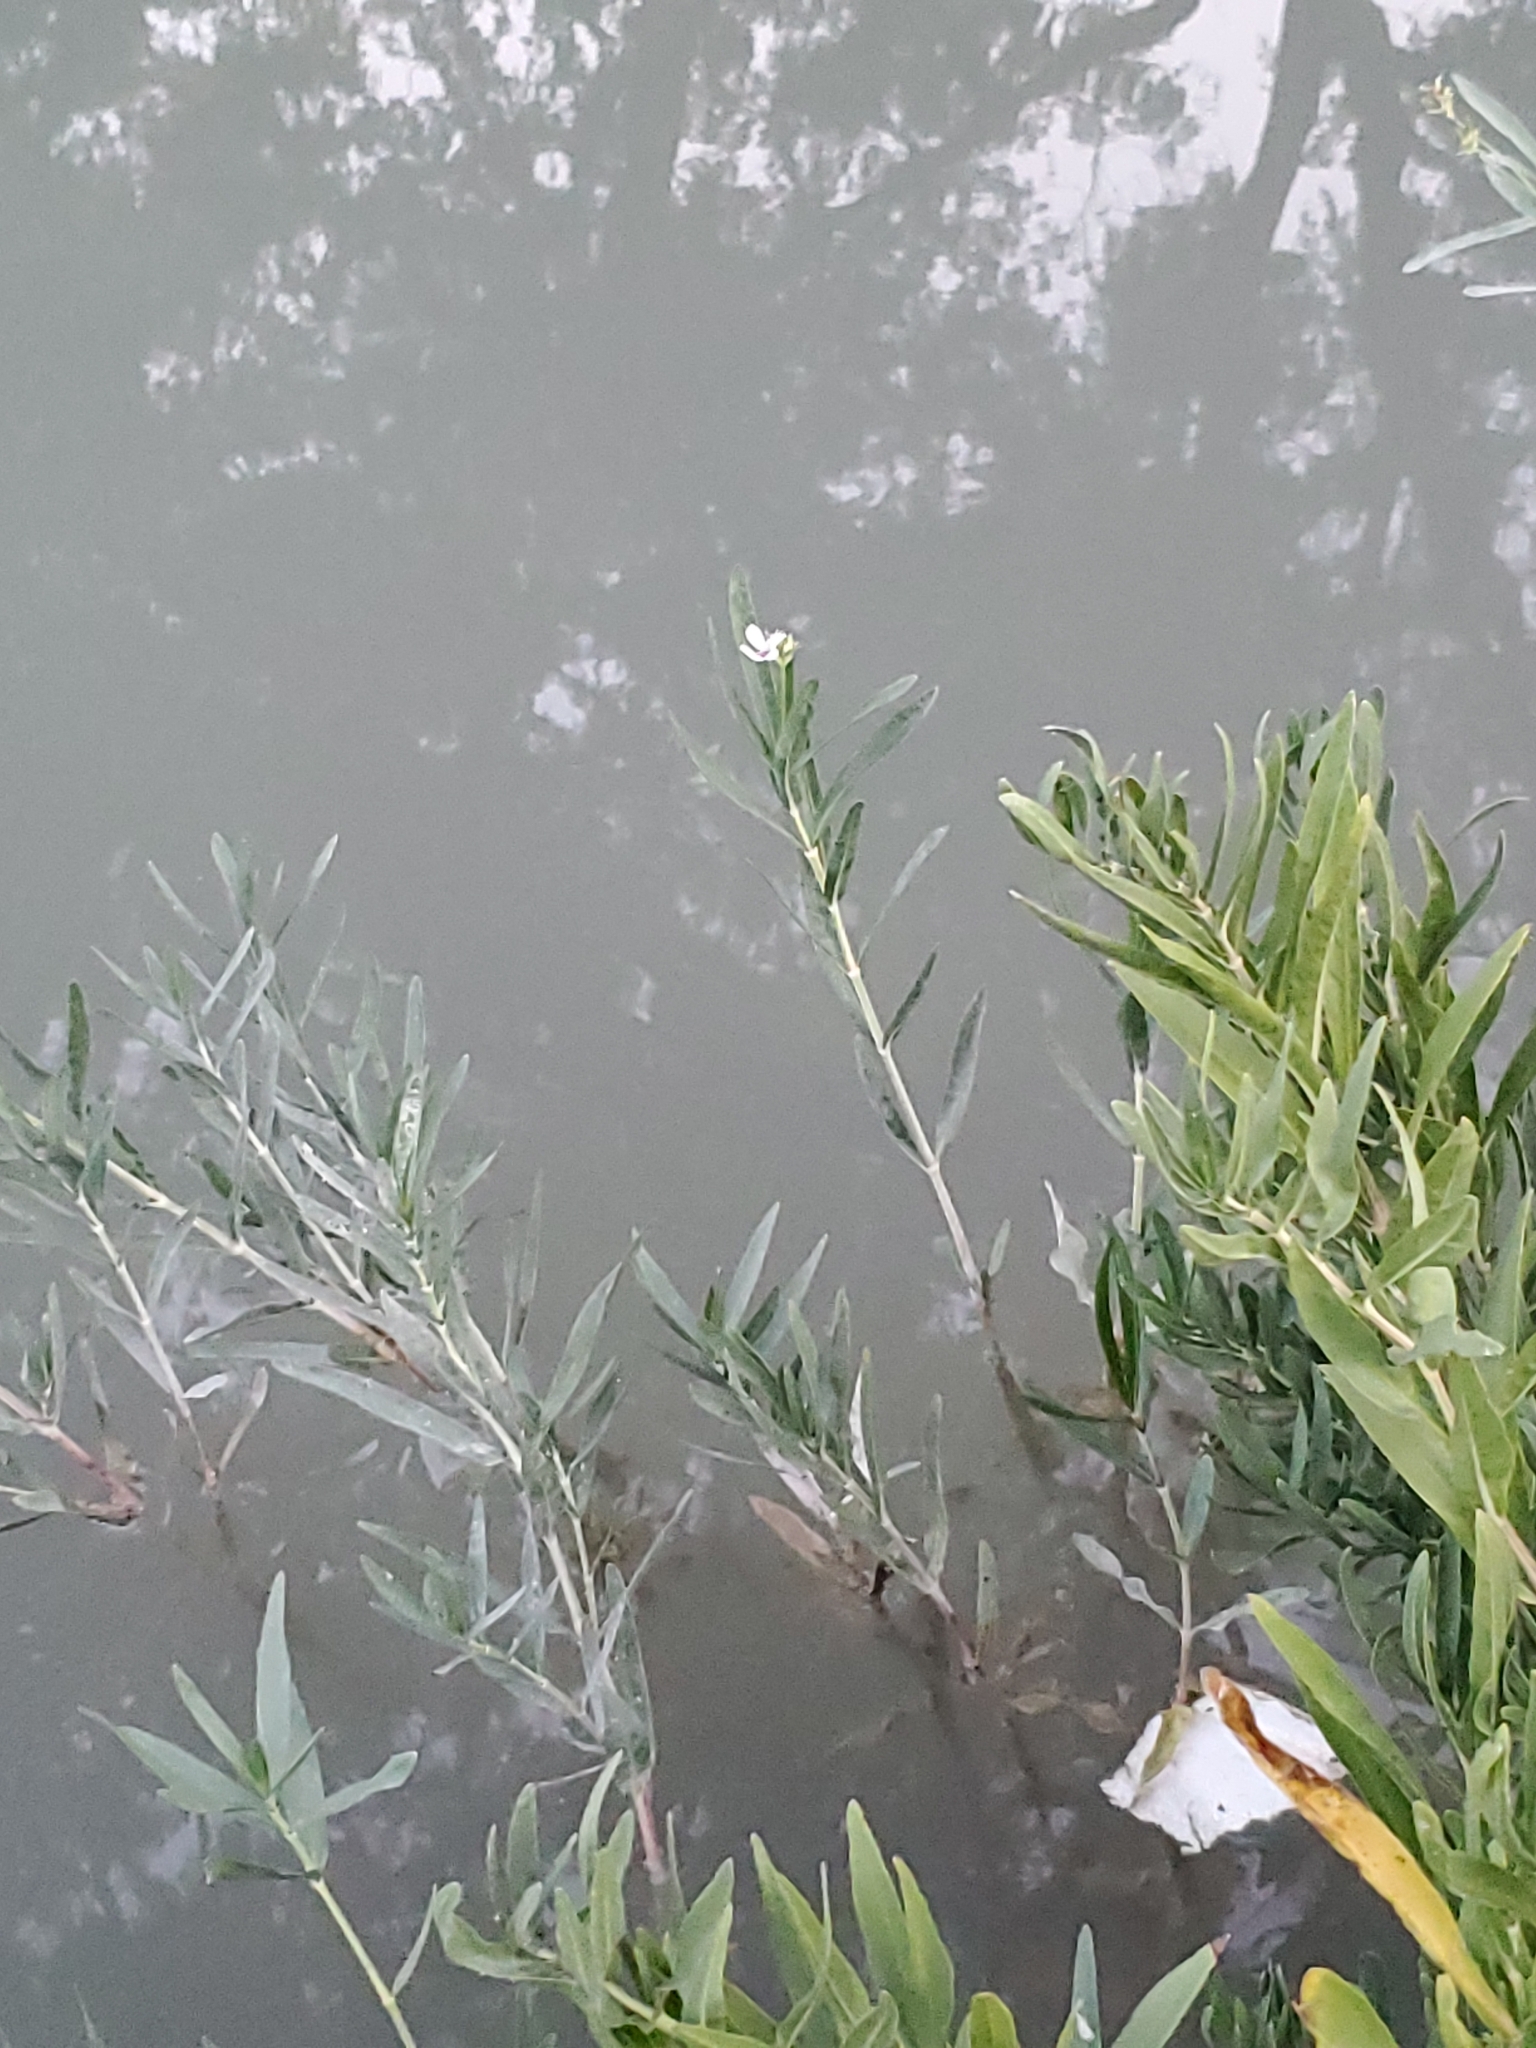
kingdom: Plantae
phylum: Tracheophyta
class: Magnoliopsida
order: Lamiales
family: Acanthaceae
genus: Dianthera
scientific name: Dianthera americana
